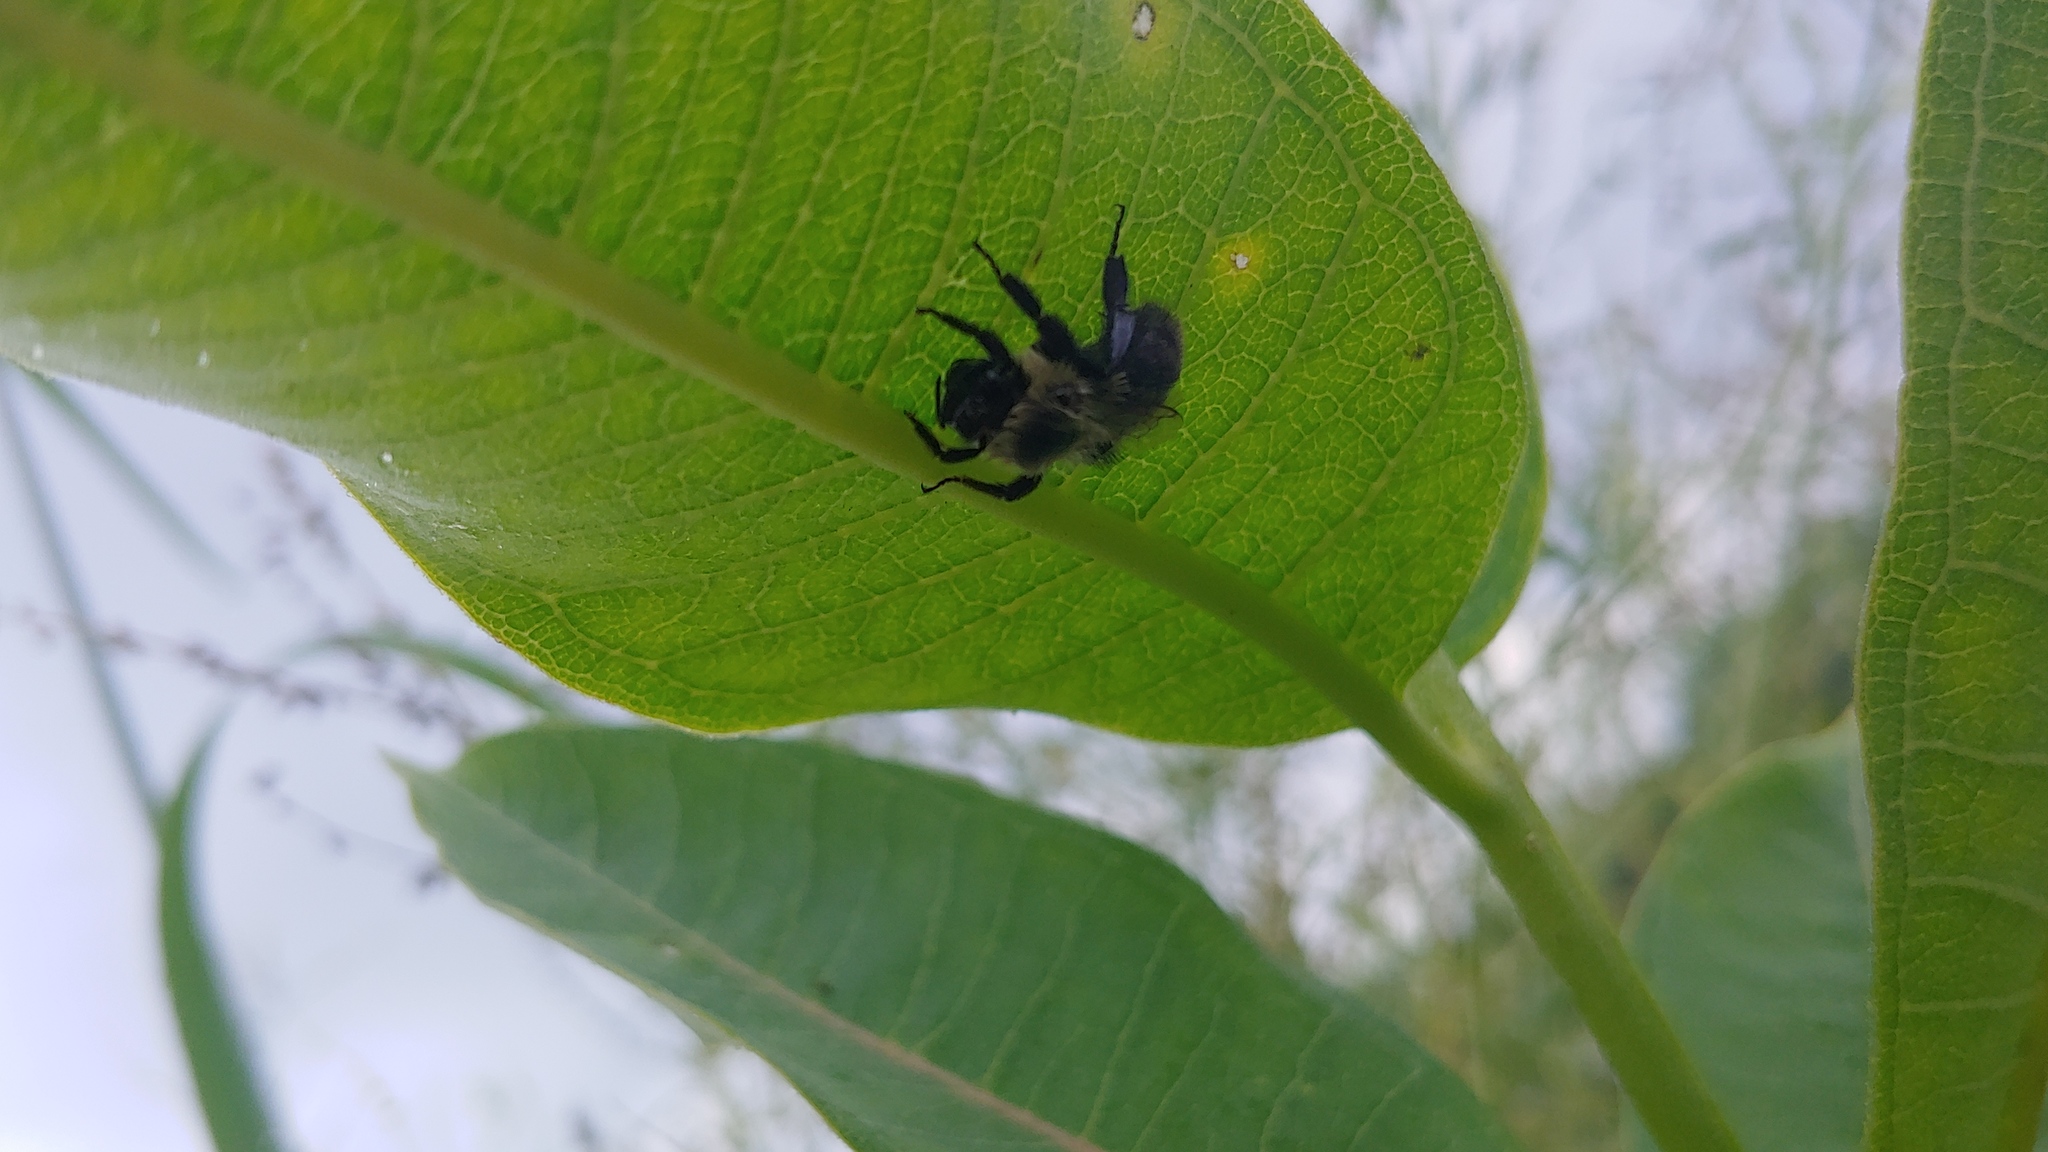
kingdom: Animalia
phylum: Arthropoda
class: Insecta
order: Hymenoptera
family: Apidae
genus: Bombus
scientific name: Bombus impatiens
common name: Common eastern bumble bee
